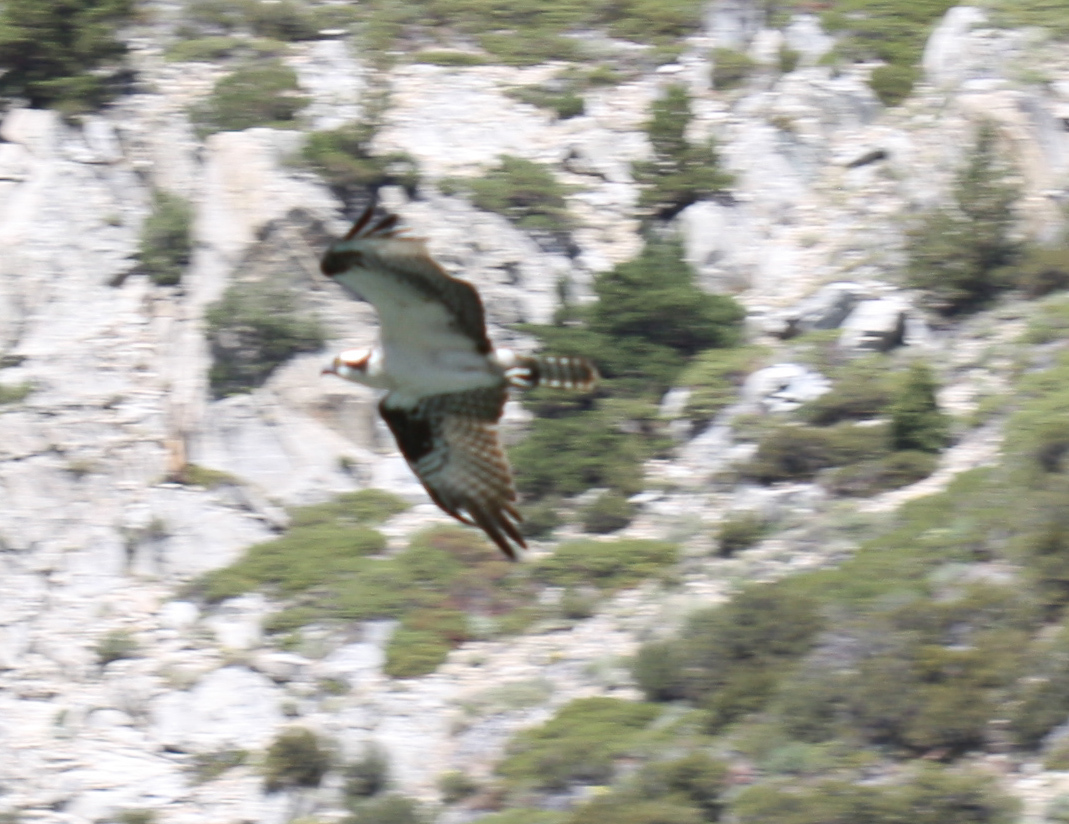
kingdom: Animalia
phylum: Chordata
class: Aves
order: Accipitriformes
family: Pandionidae
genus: Pandion
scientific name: Pandion haliaetus
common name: Osprey
